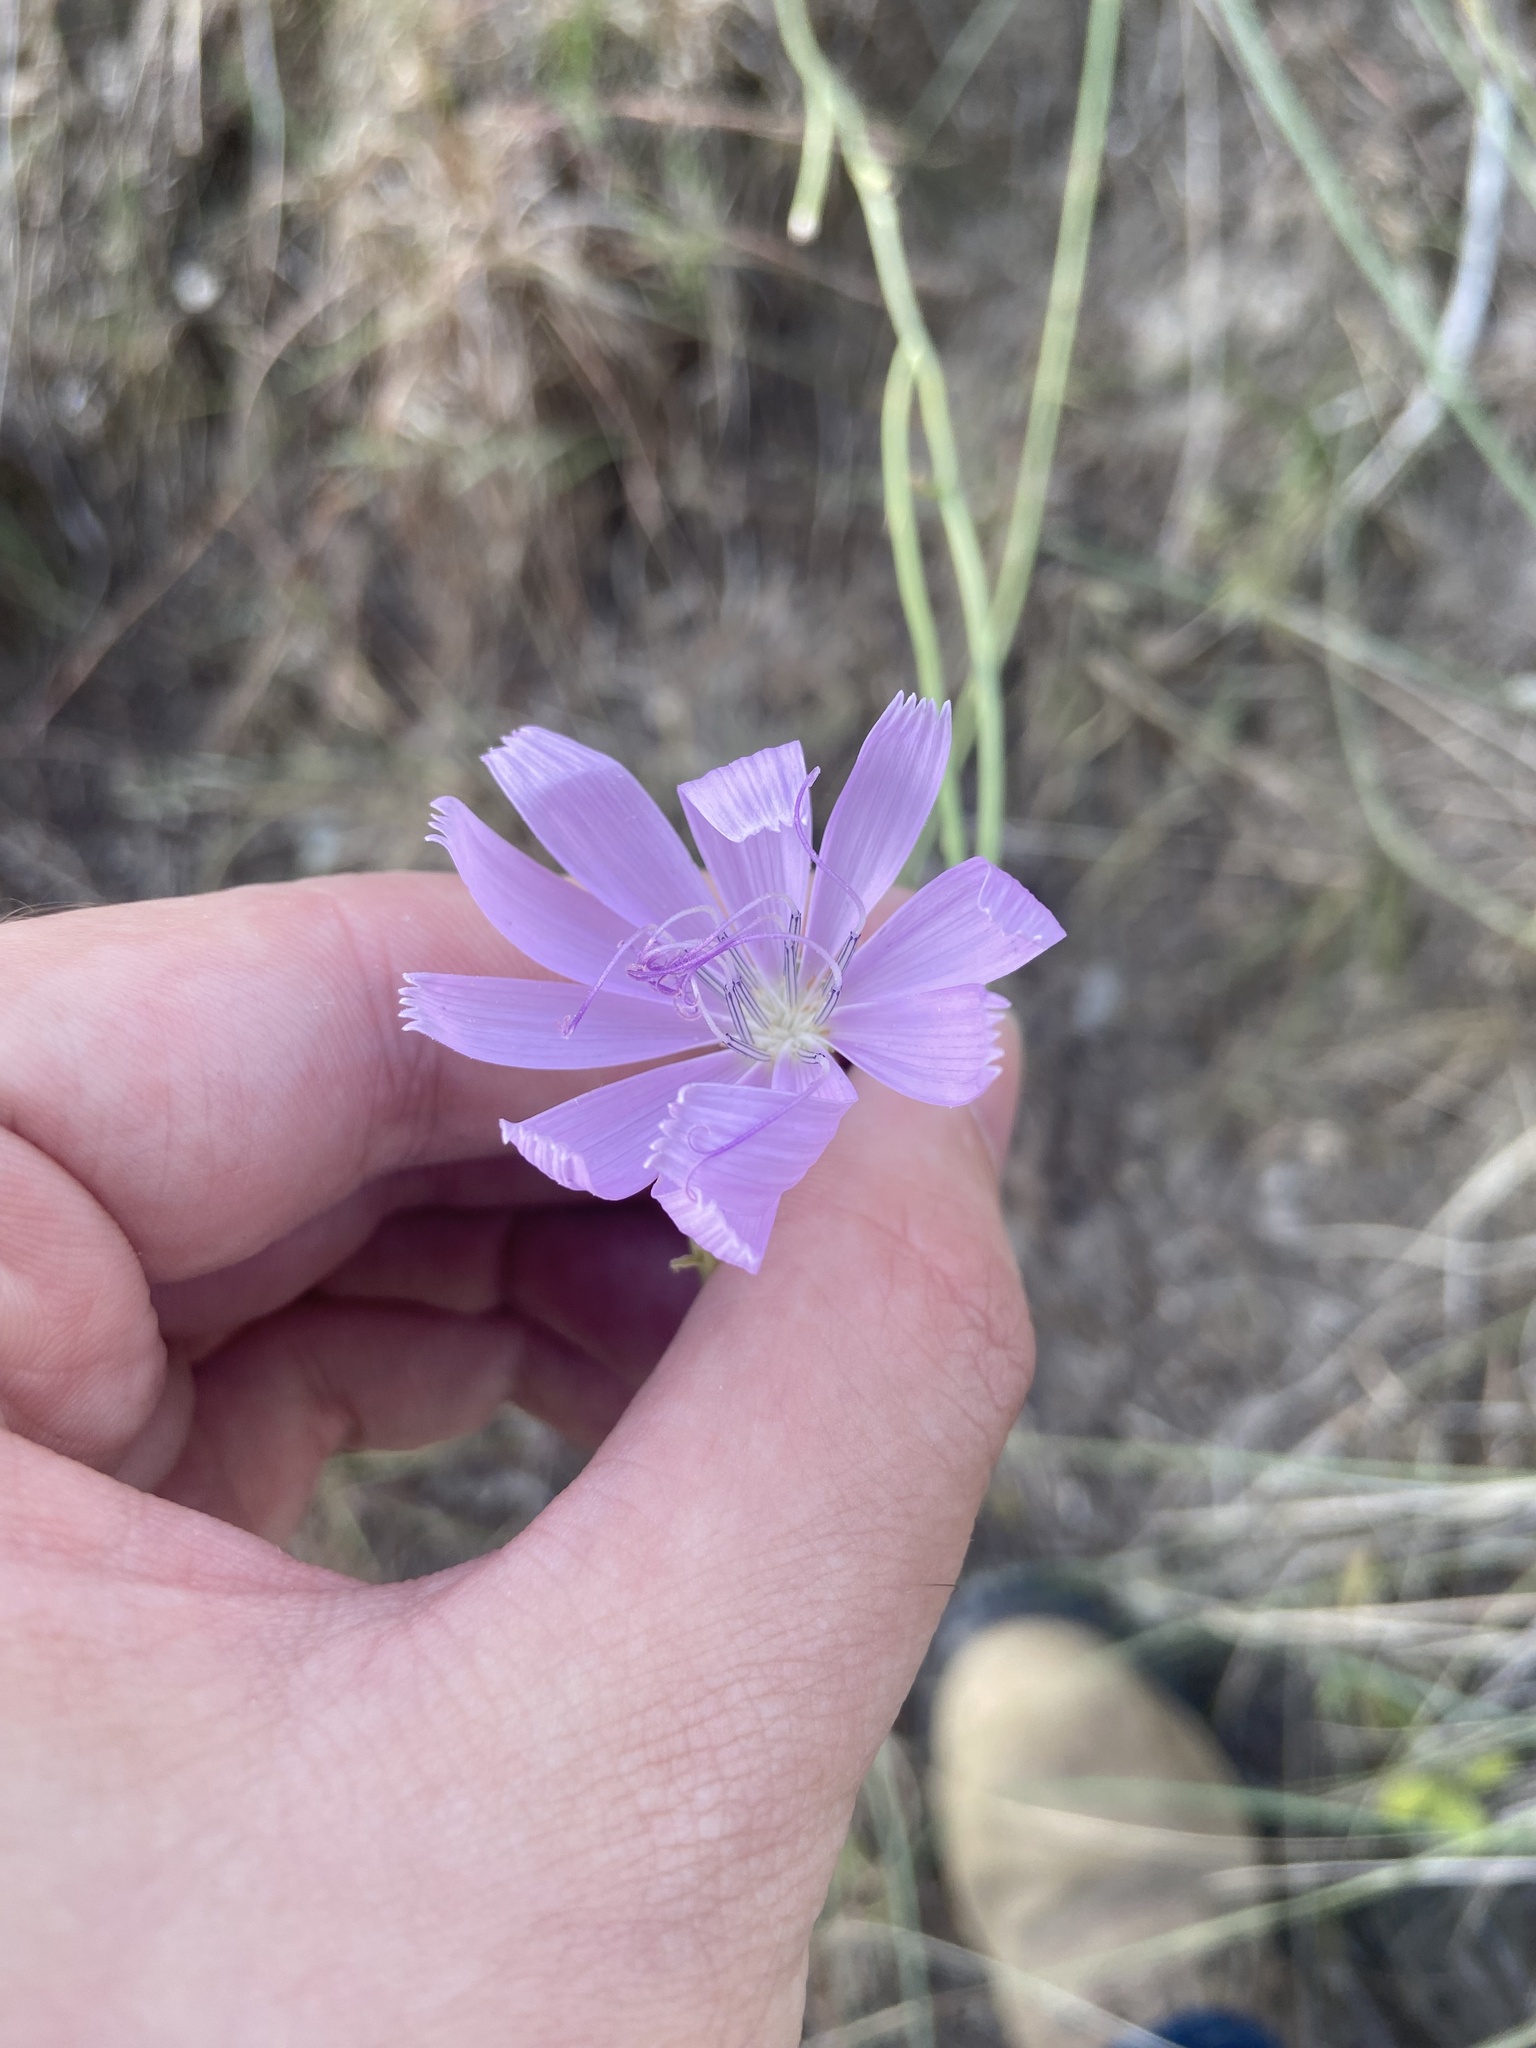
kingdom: Plantae
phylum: Tracheophyta
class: Magnoliopsida
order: Asterales
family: Asteraceae
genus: Lygodesmia
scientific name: Lygodesmia texana
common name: Texas skeleton-plant
